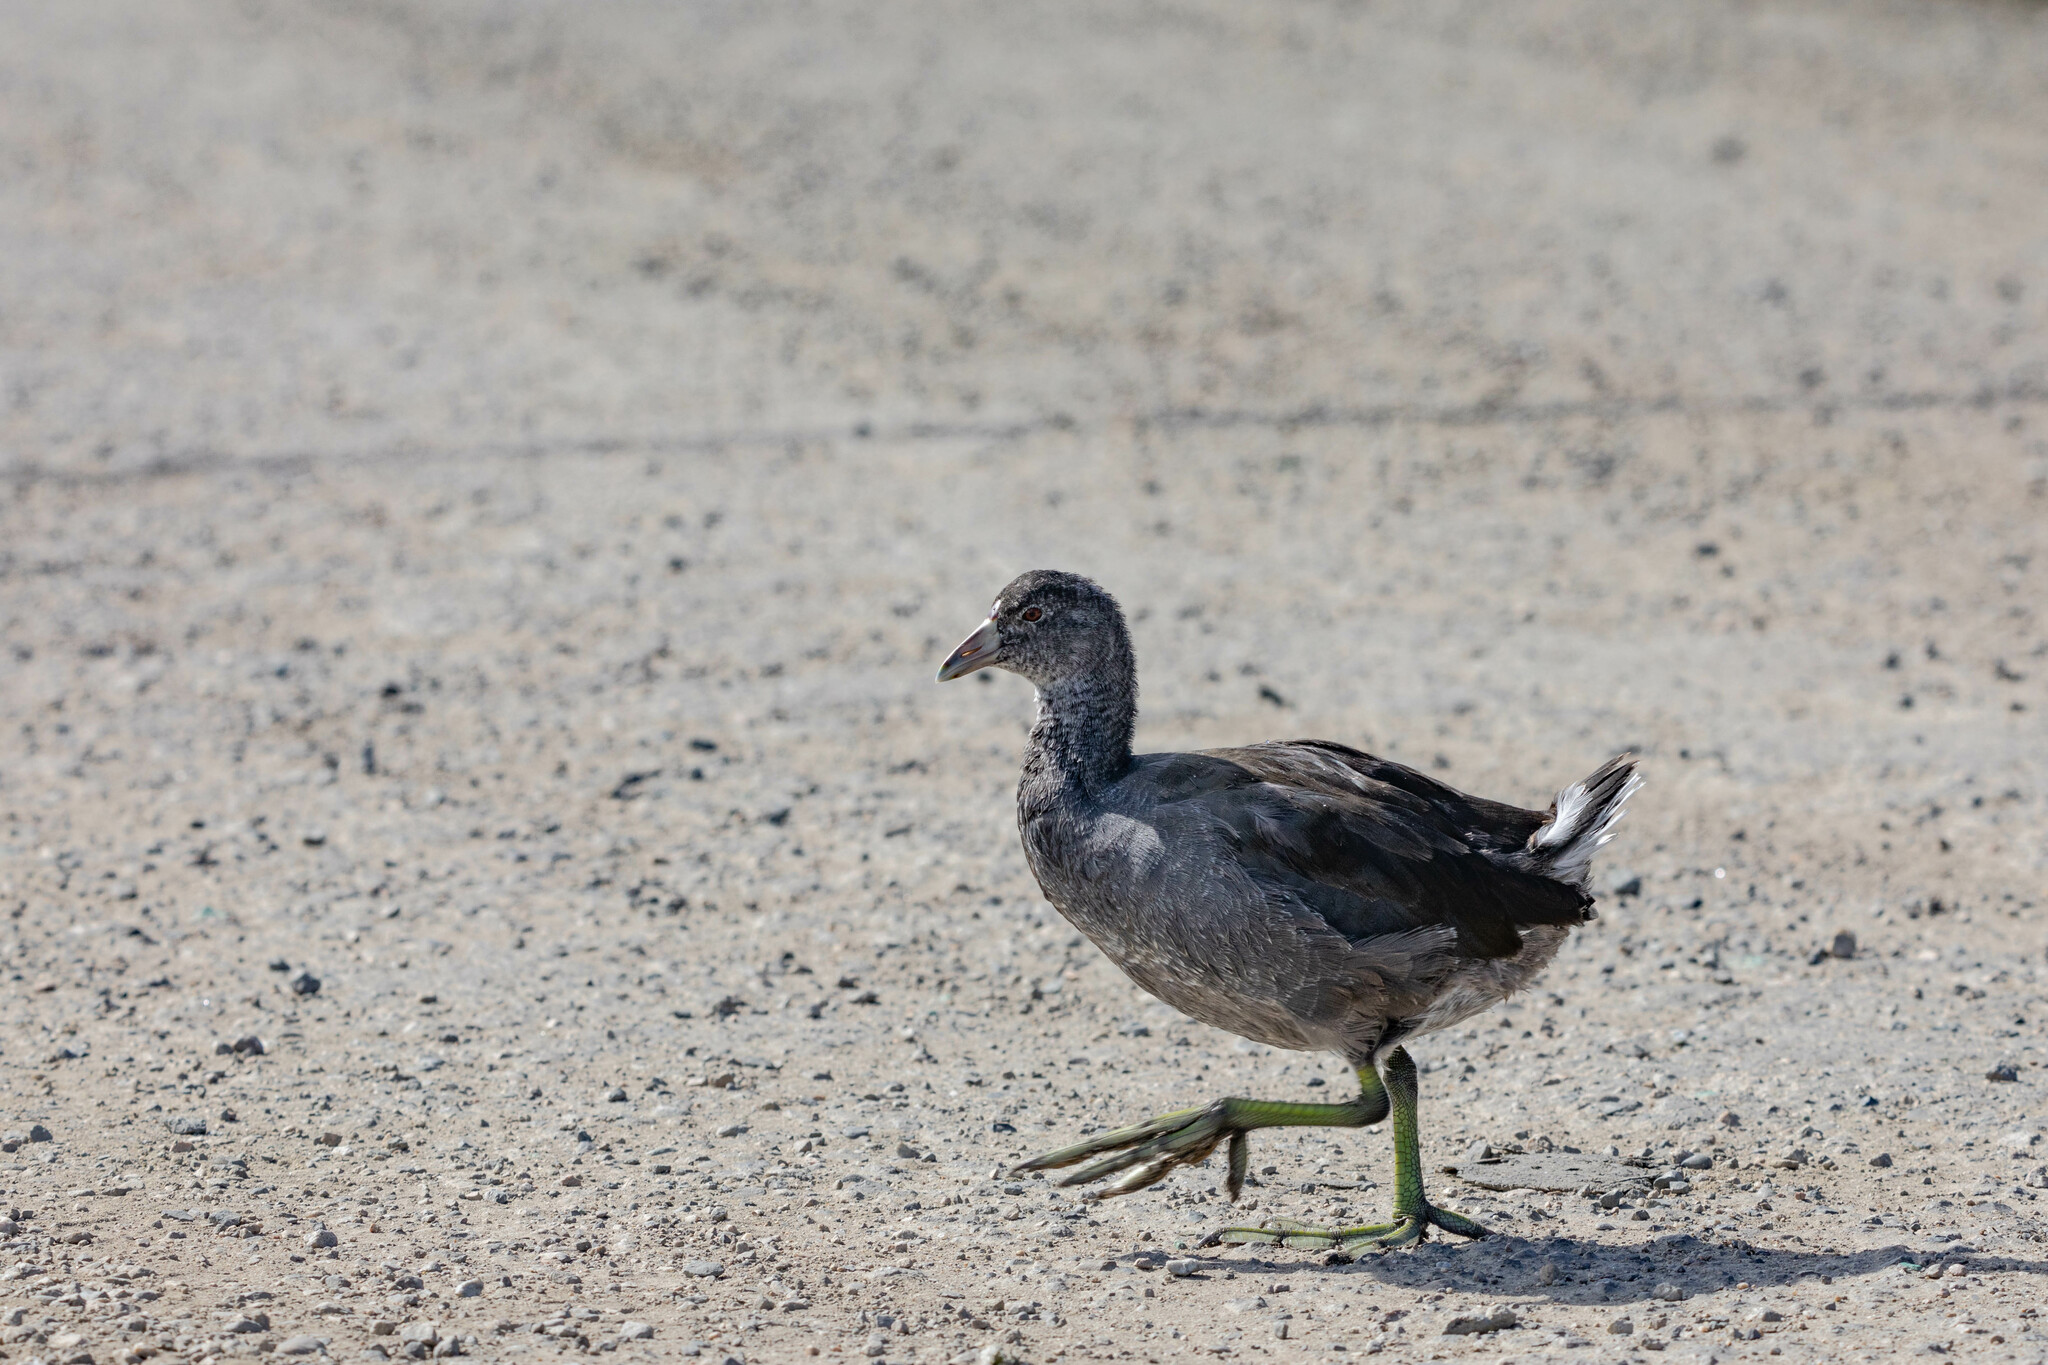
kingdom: Animalia
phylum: Chordata
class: Aves
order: Gruiformes
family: Rallidae
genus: Fulica
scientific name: Fulica americana
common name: American coot
